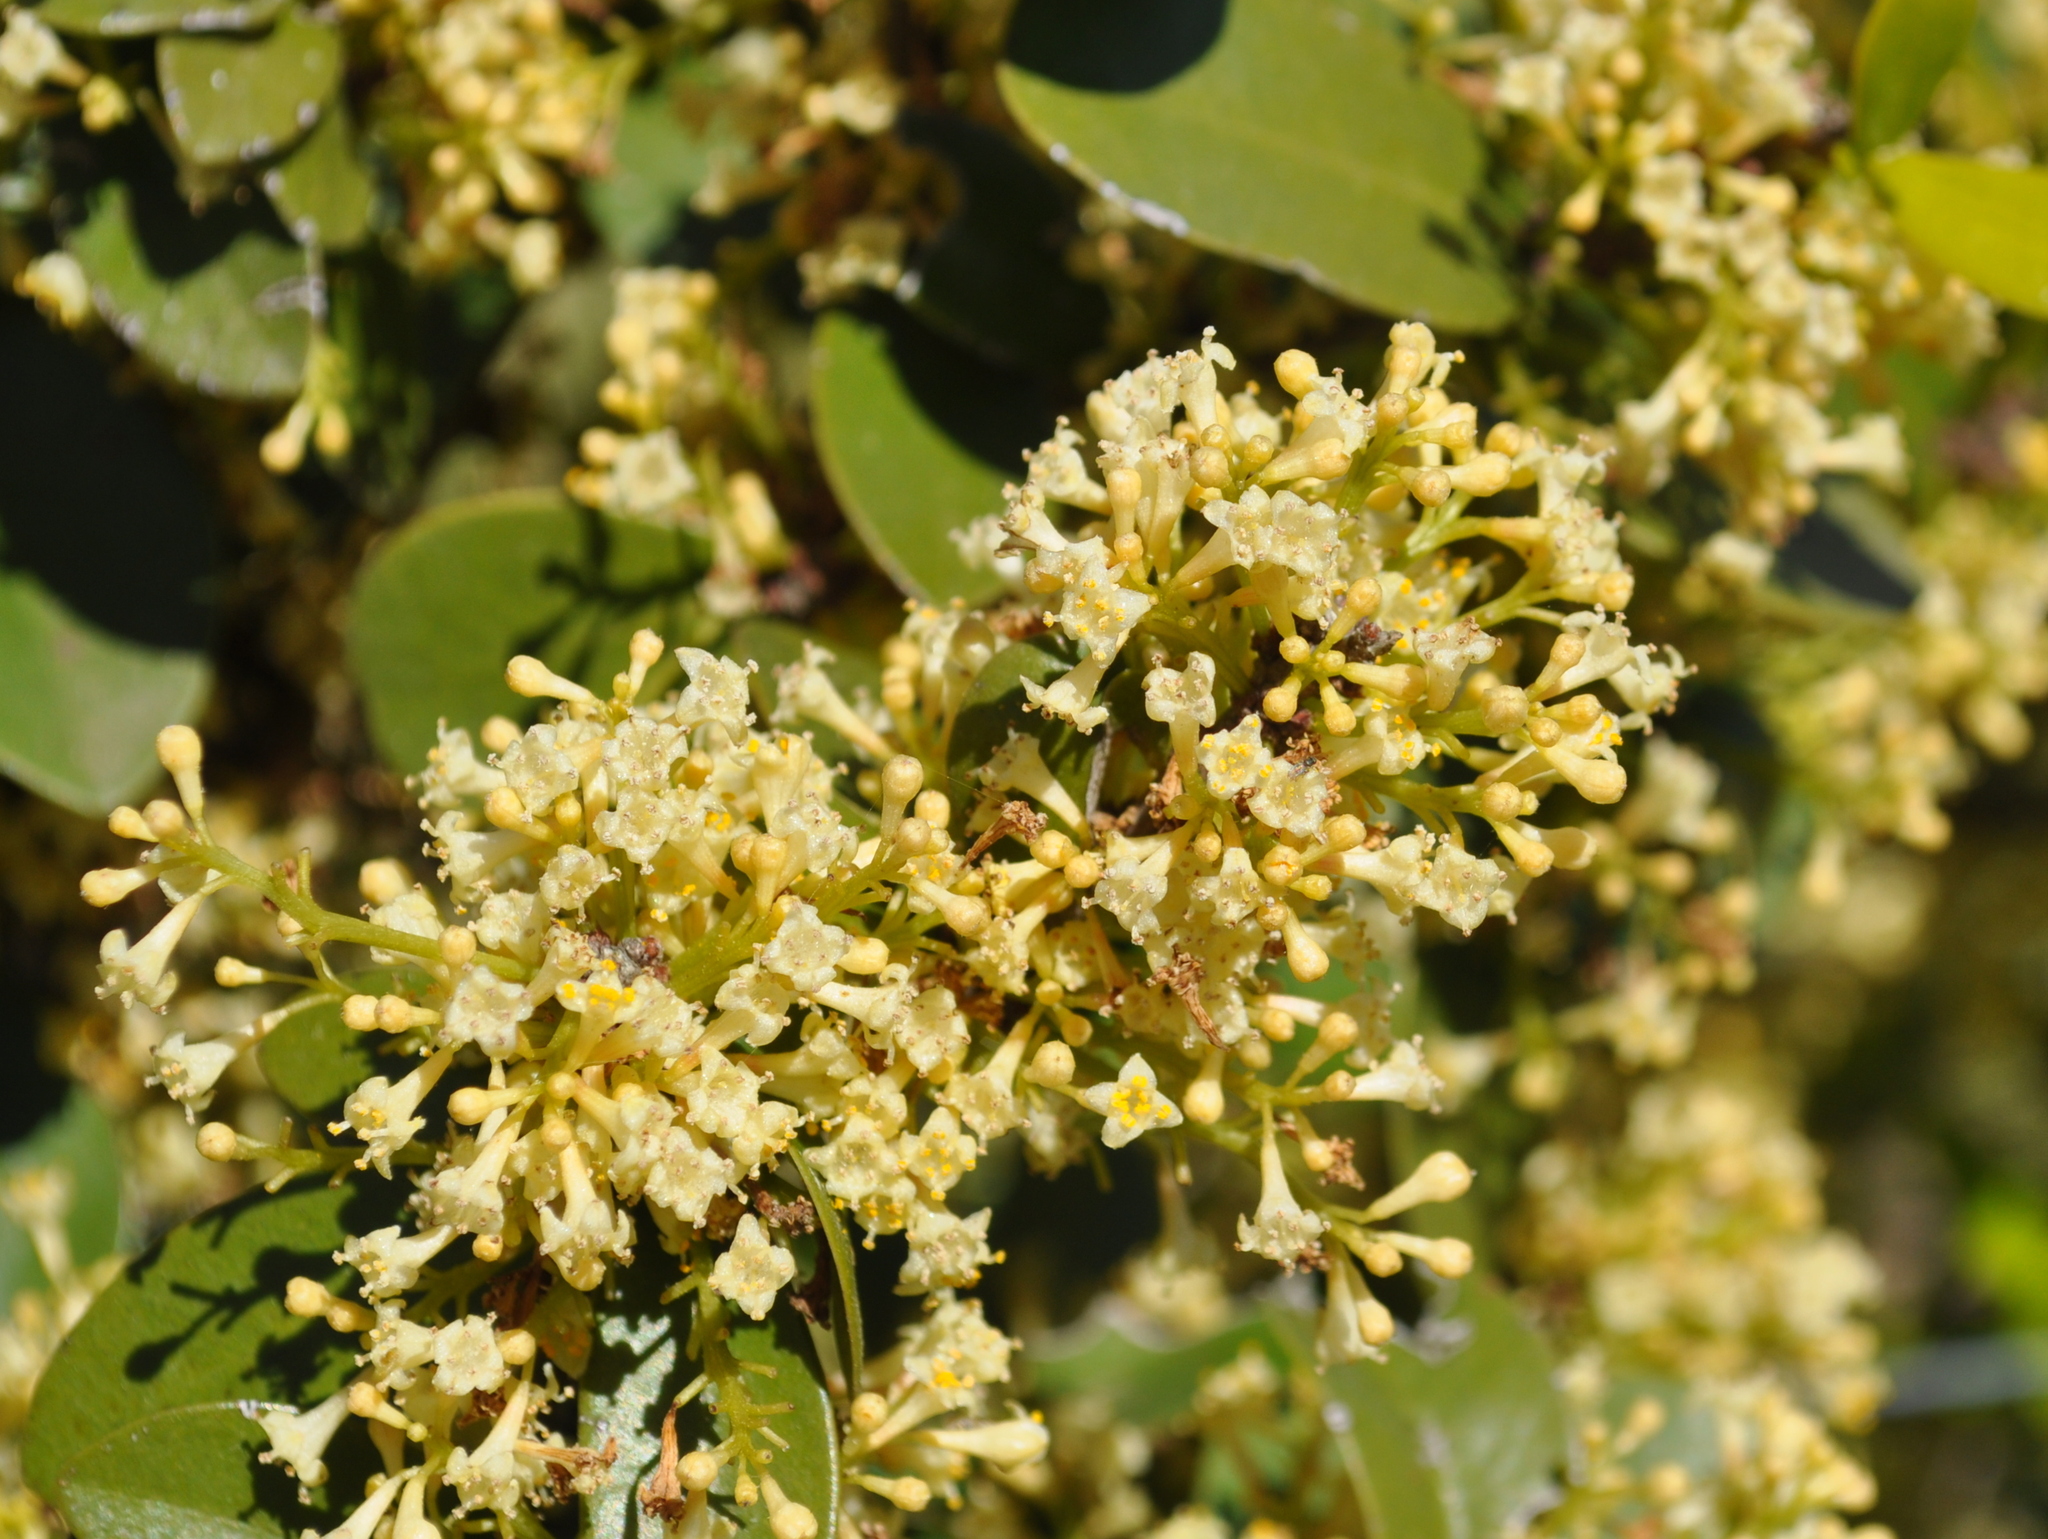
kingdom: Plantae
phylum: Tracheophyta
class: Magnoliopsida
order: Malvales
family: Thymelaeaceae
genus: Daphnopsis
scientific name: Daphnopsis racemosa
